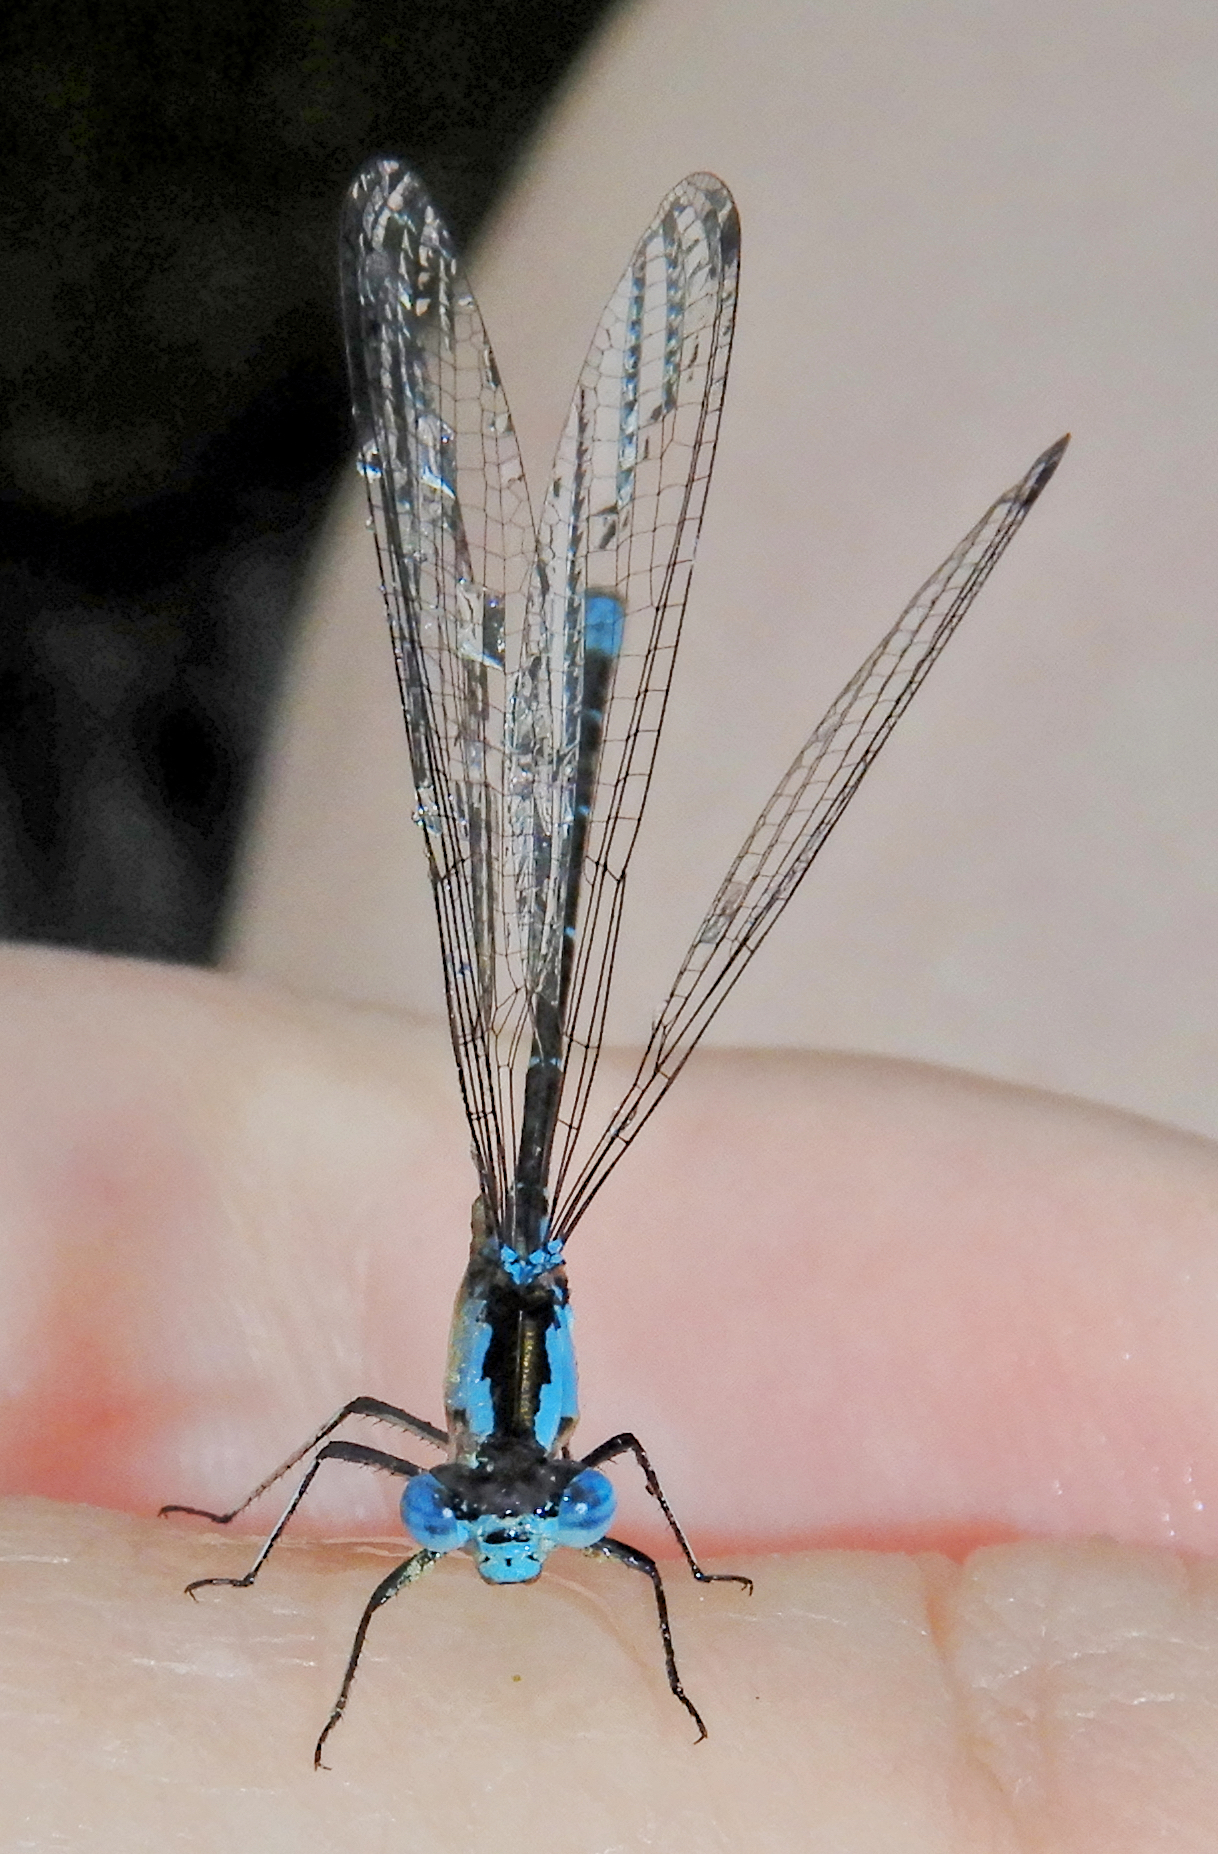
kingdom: Animalia
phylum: Arthropoda
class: Insecta
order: Odonata
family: Coenagrionidae
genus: Chromagrion
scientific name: Chromagrion conditum
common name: Aurora damsel
